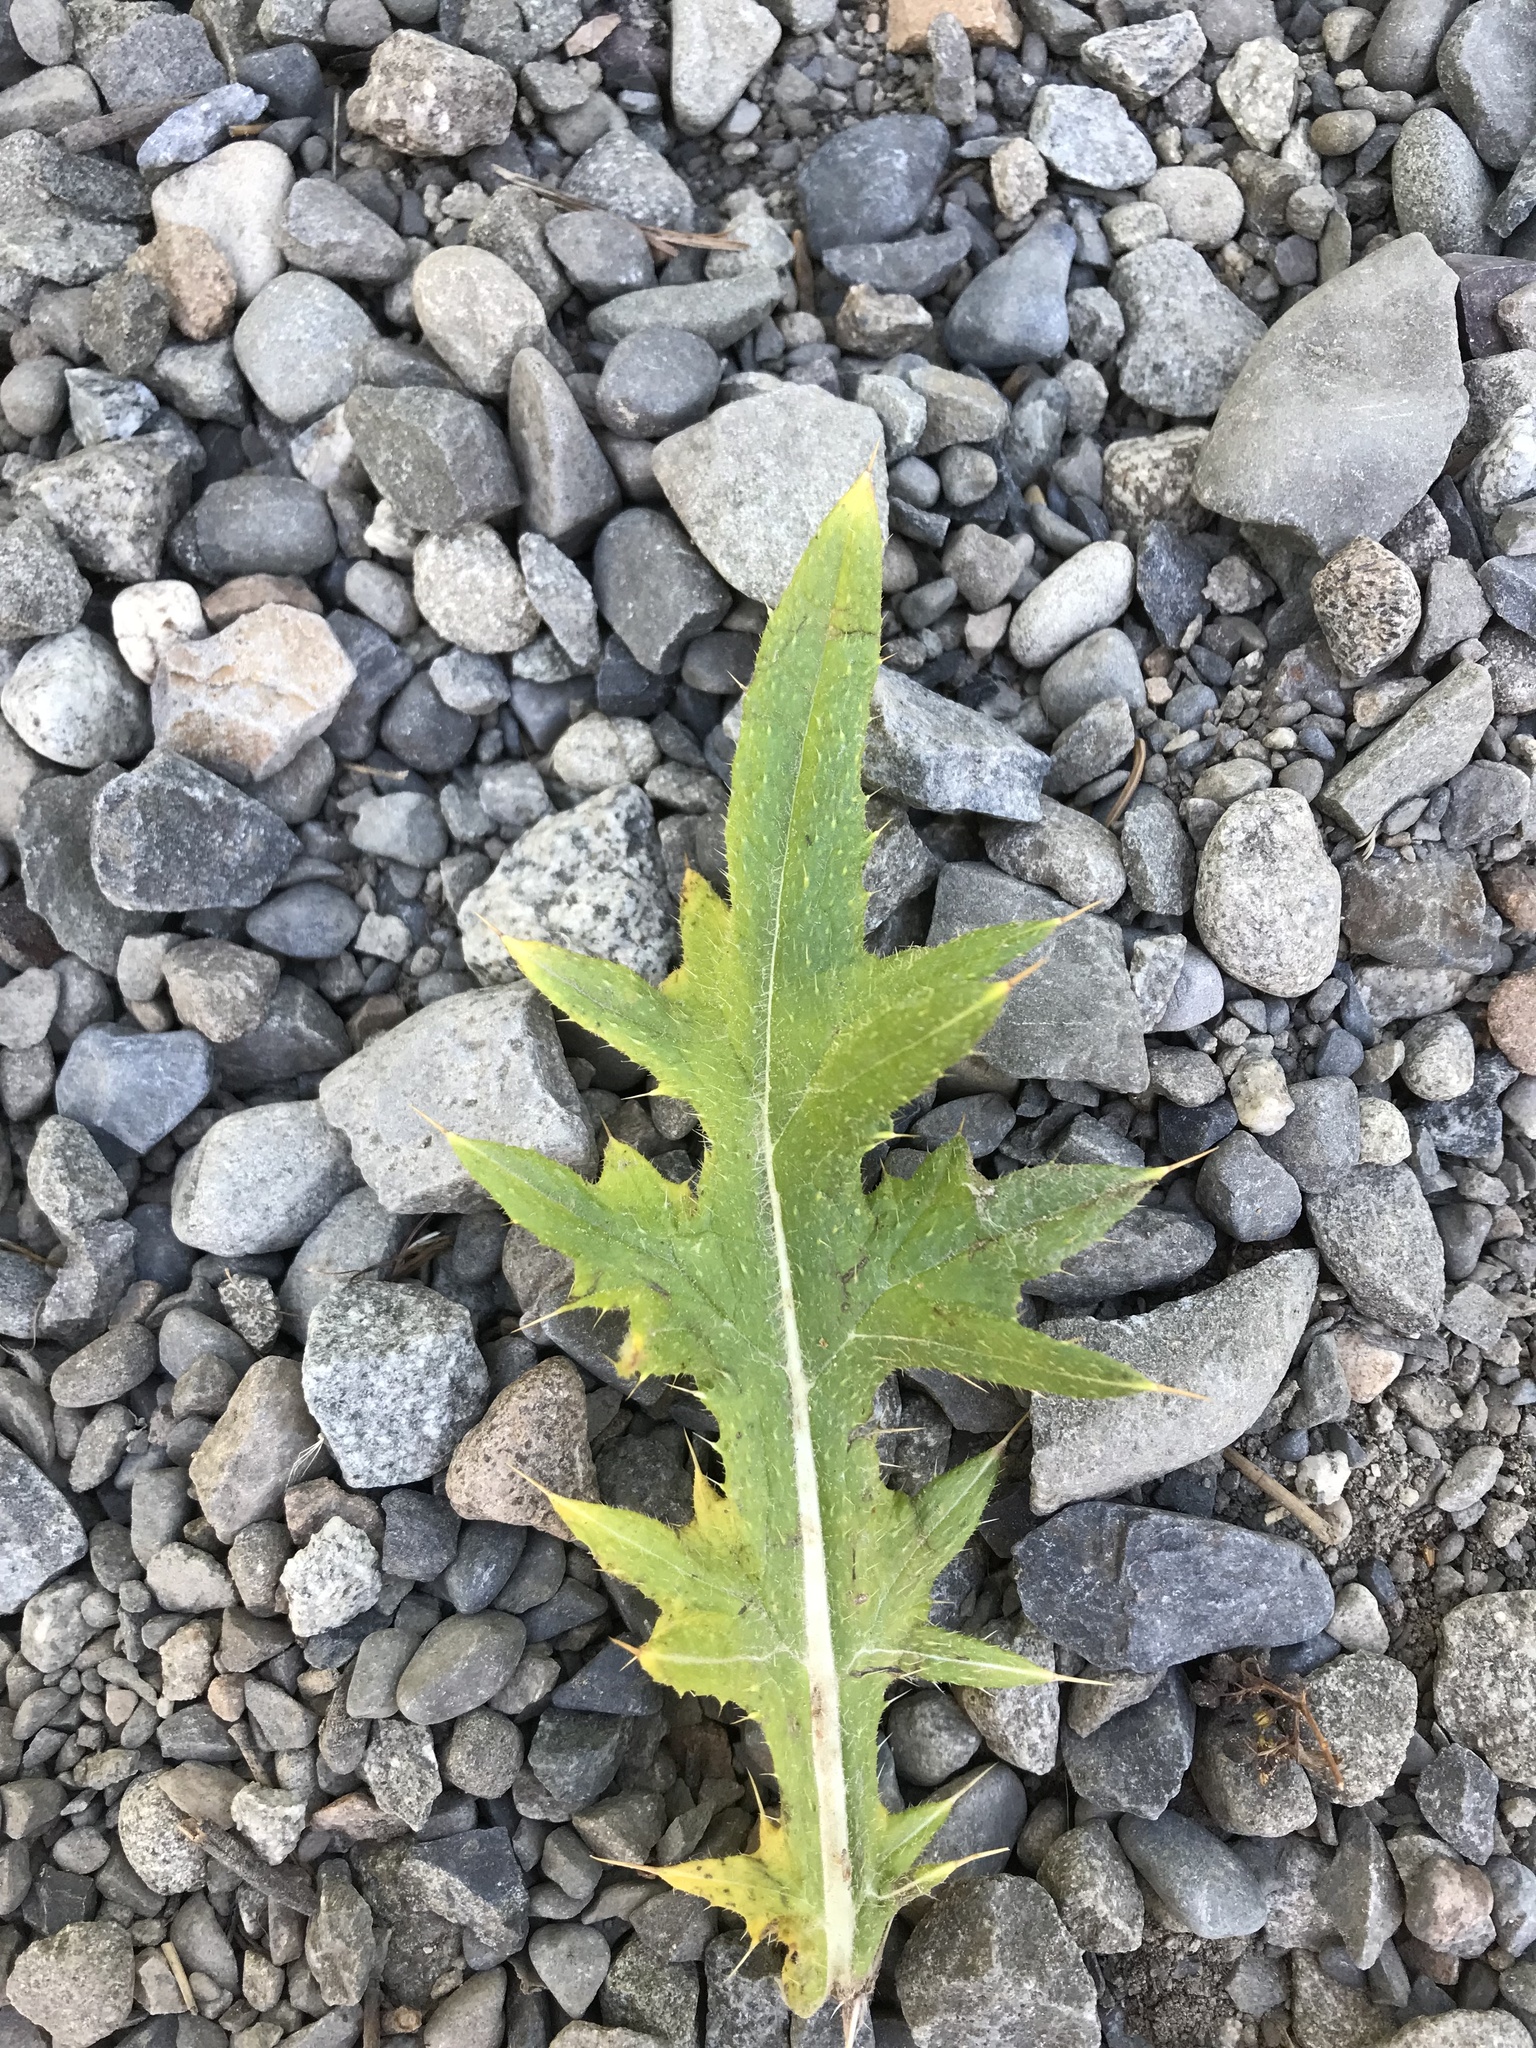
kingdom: Plantae
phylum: Tracheophyta
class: Magnoliopsida
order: Asterales
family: Asteraceae
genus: Cirsium
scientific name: Cirsium vulgare
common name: Bull thistle
